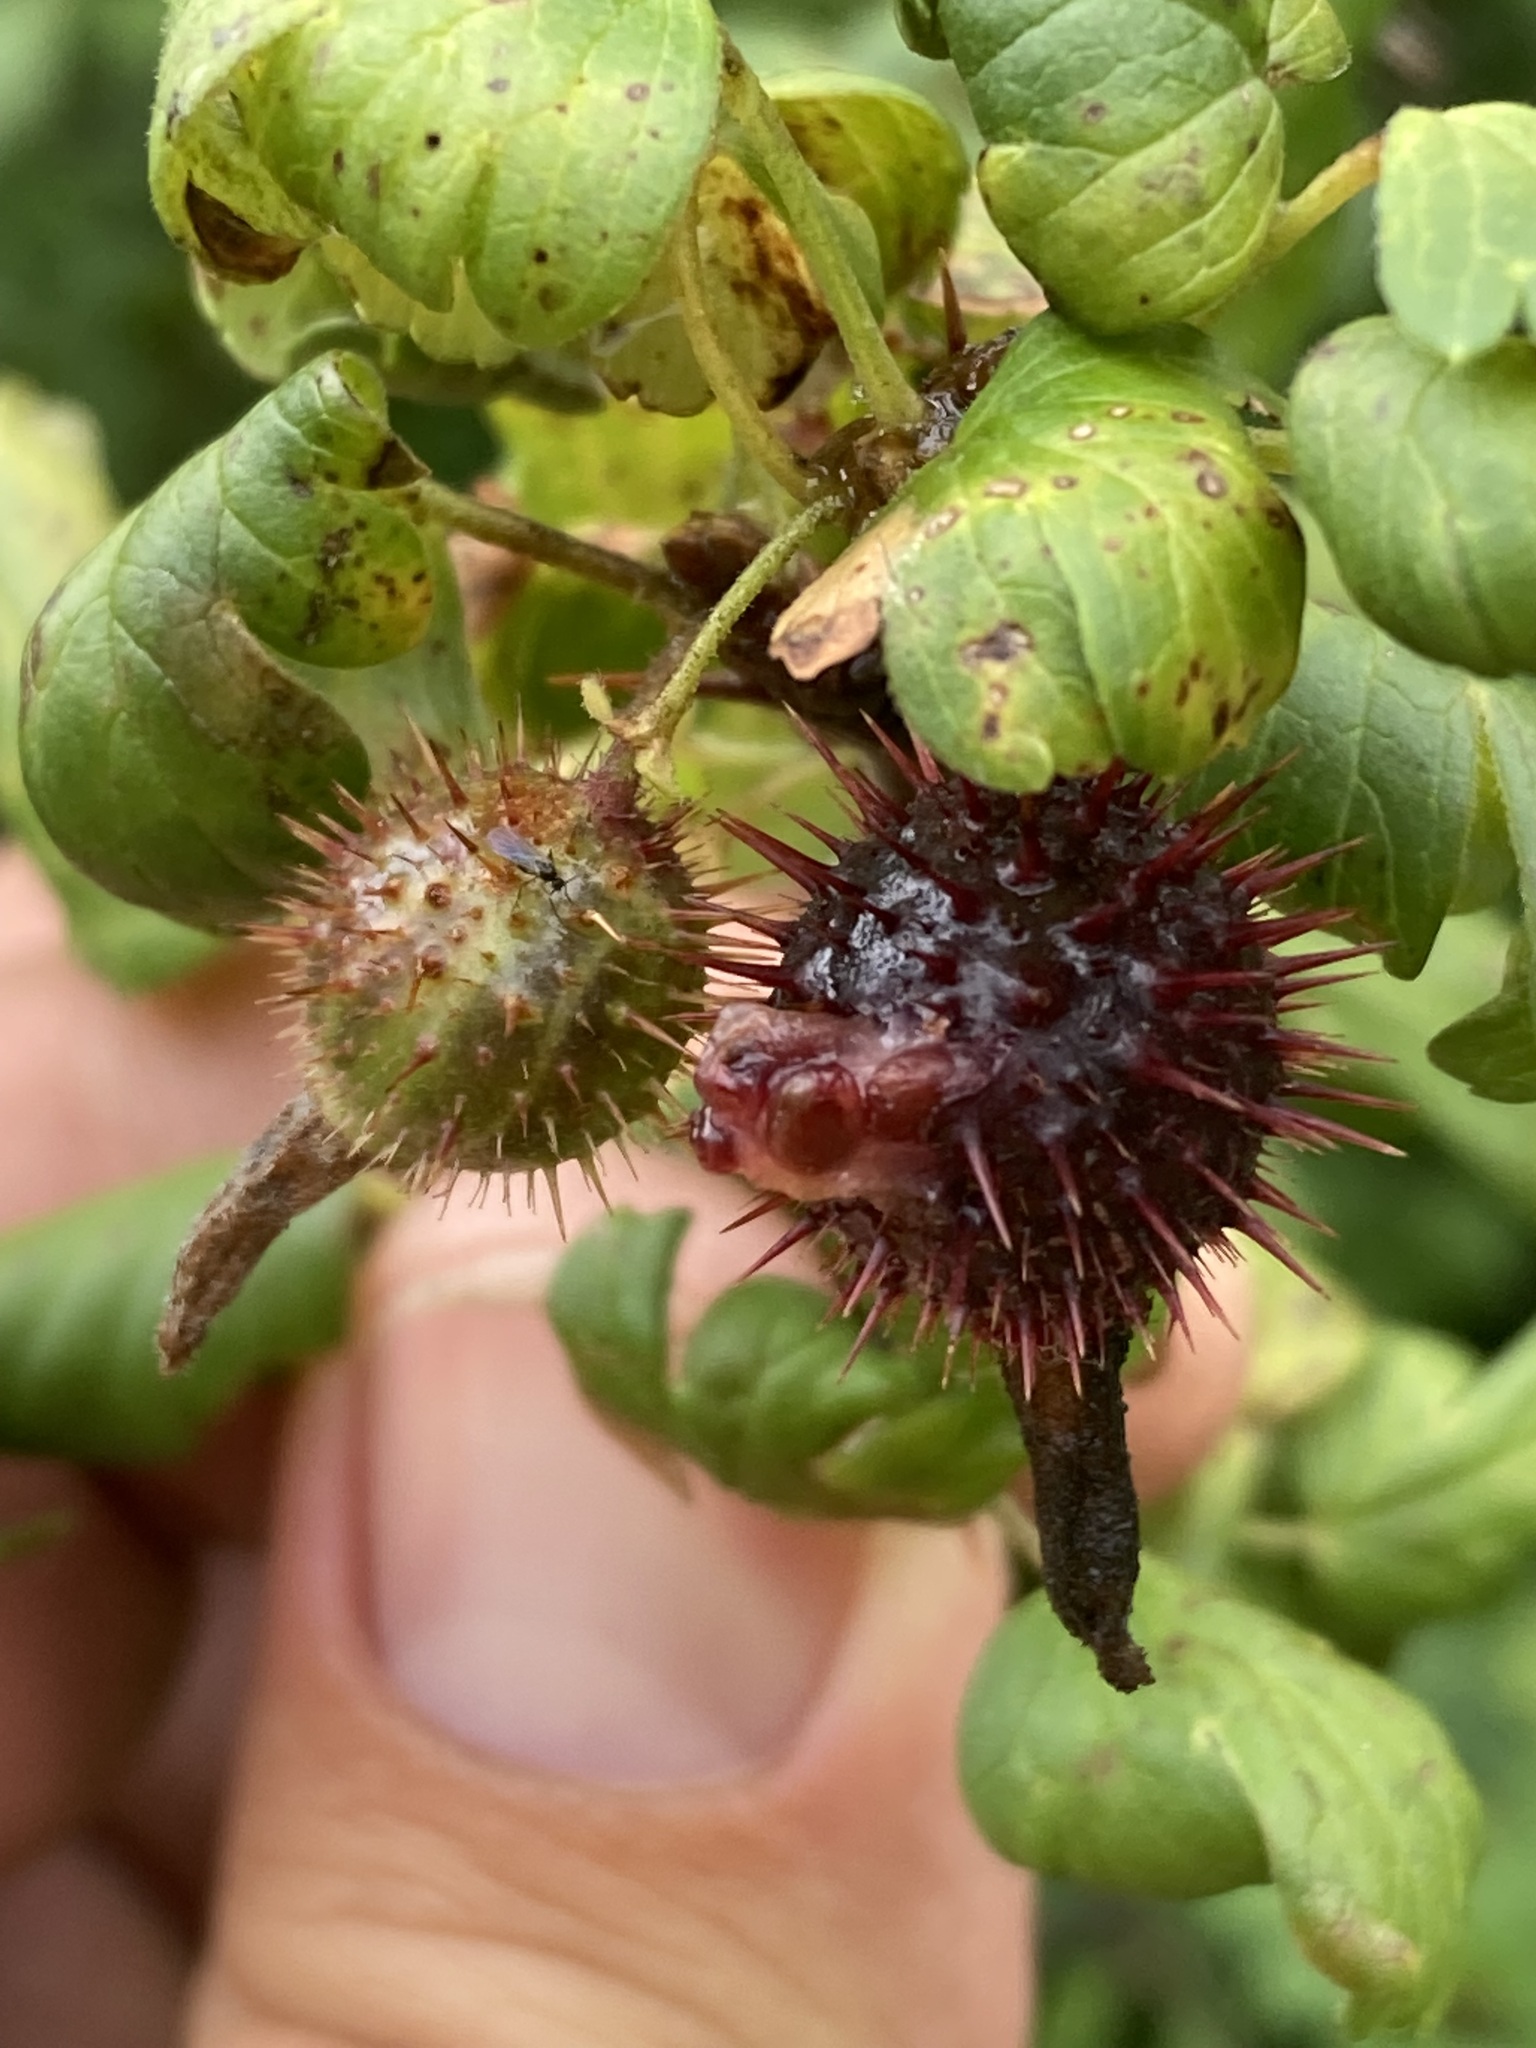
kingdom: Plantae
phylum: Tracheophyta
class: Magnoliopsida
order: Saxifragales
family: Grossulariaceae
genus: Ribes
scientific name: Ribes pinetorum
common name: Orange gooseberry
